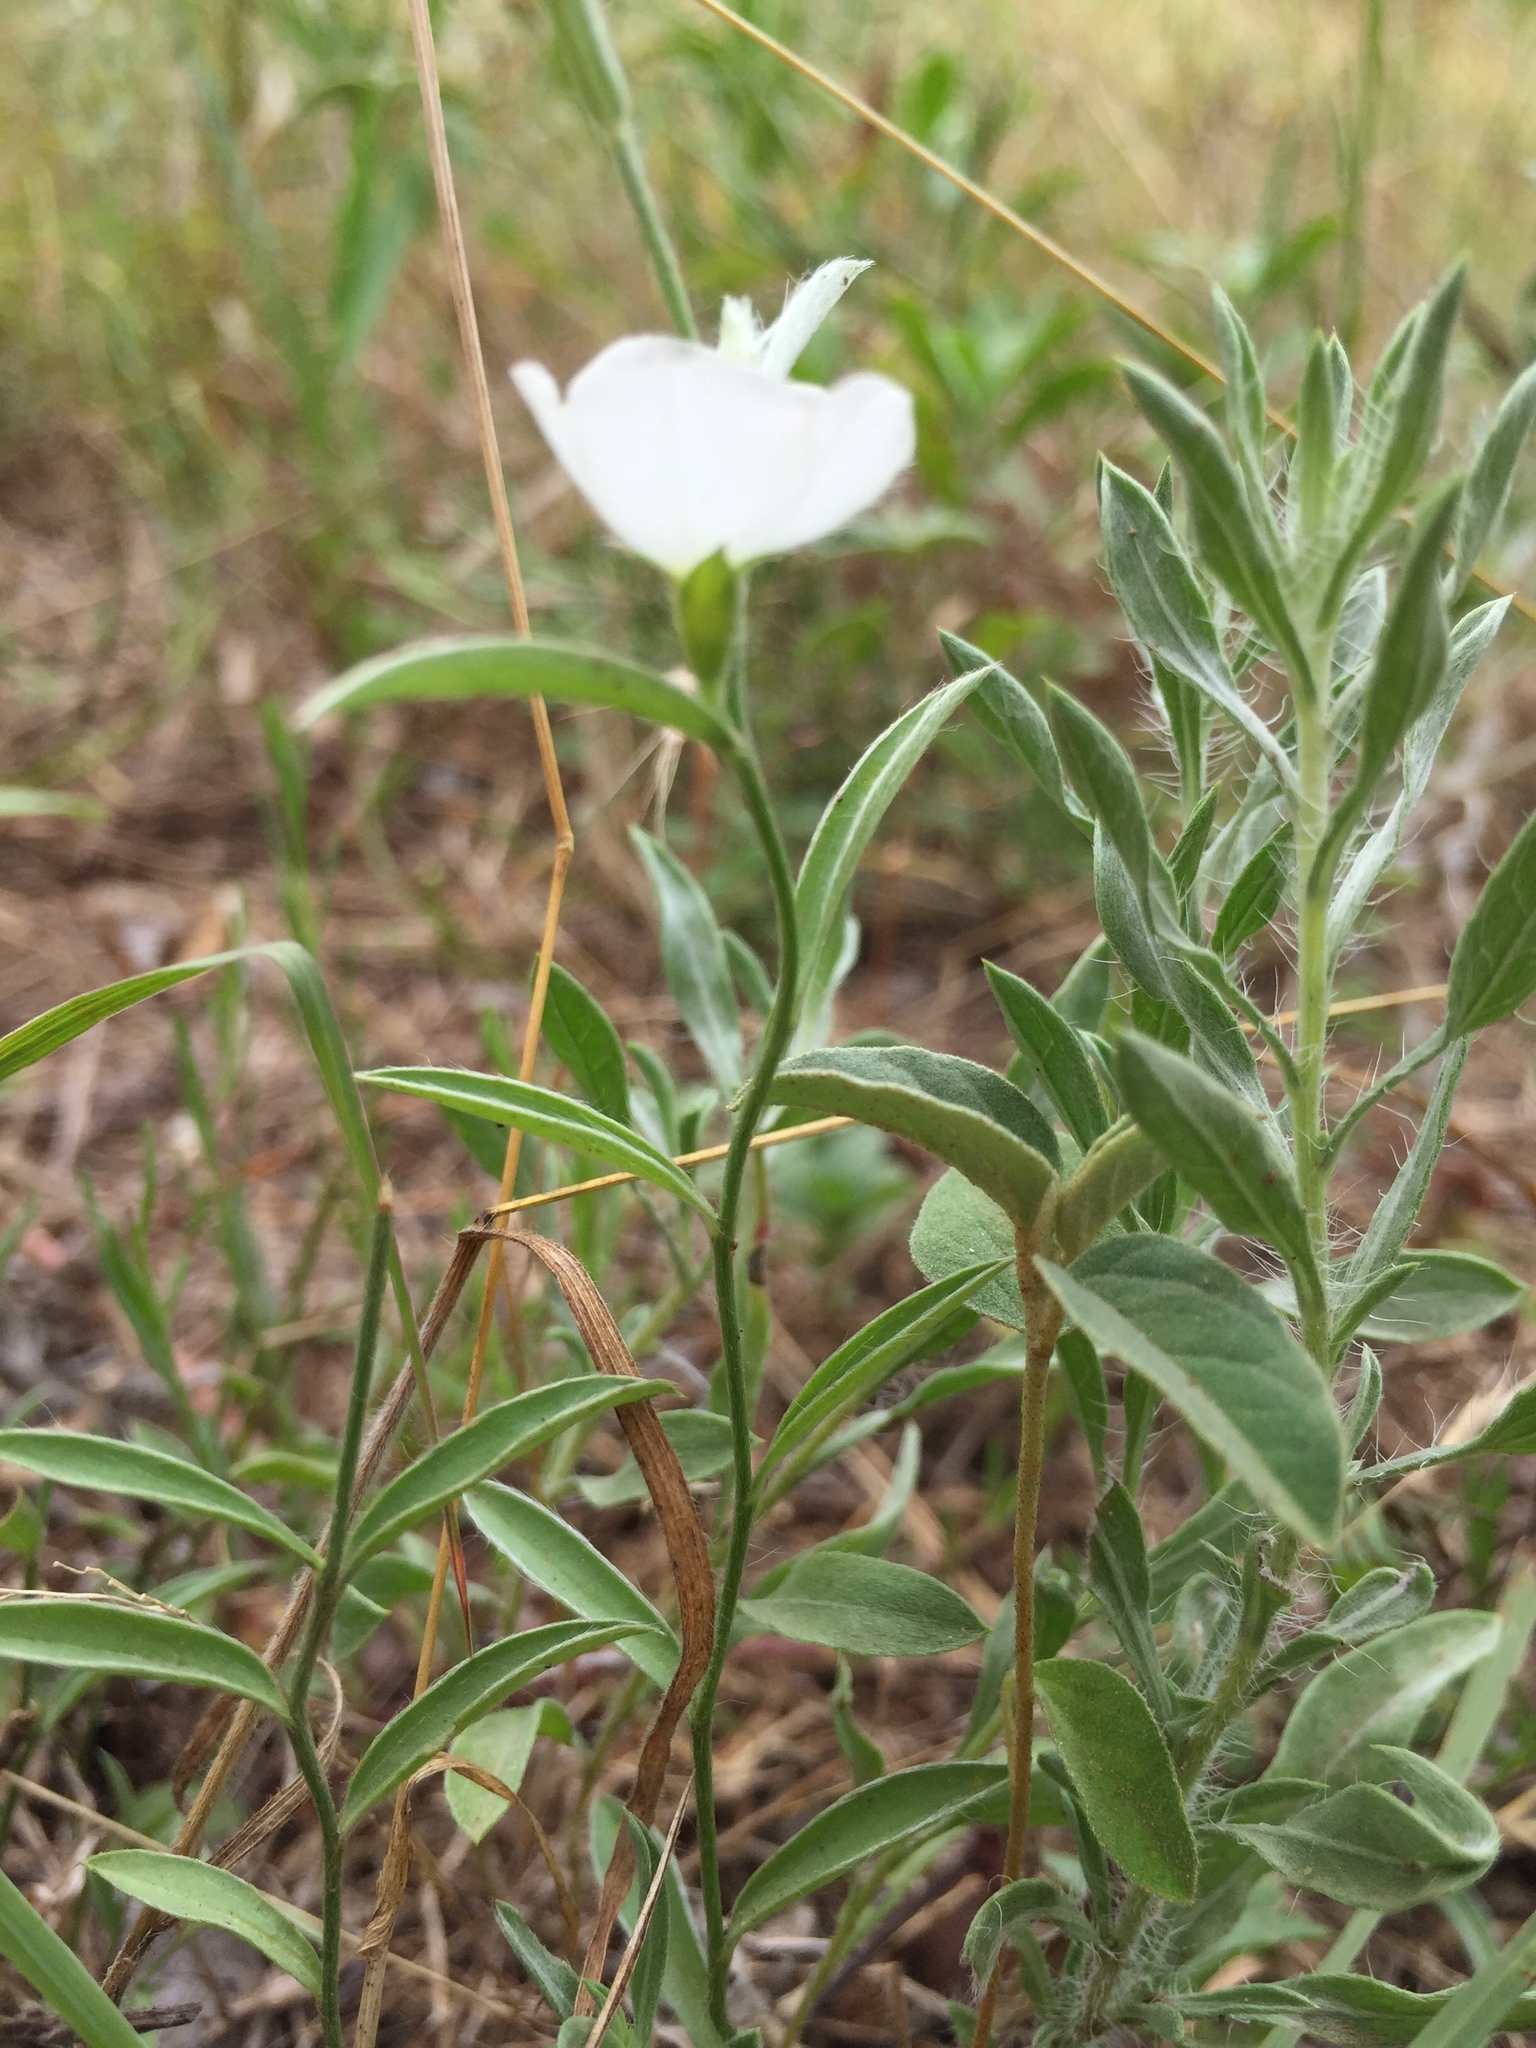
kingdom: Plantae
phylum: Tracheophyta
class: Magnoliopsida
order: Solanales
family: Convolvulaceae
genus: Evolvulus
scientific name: Evolvulus sericeus
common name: Blue dots
